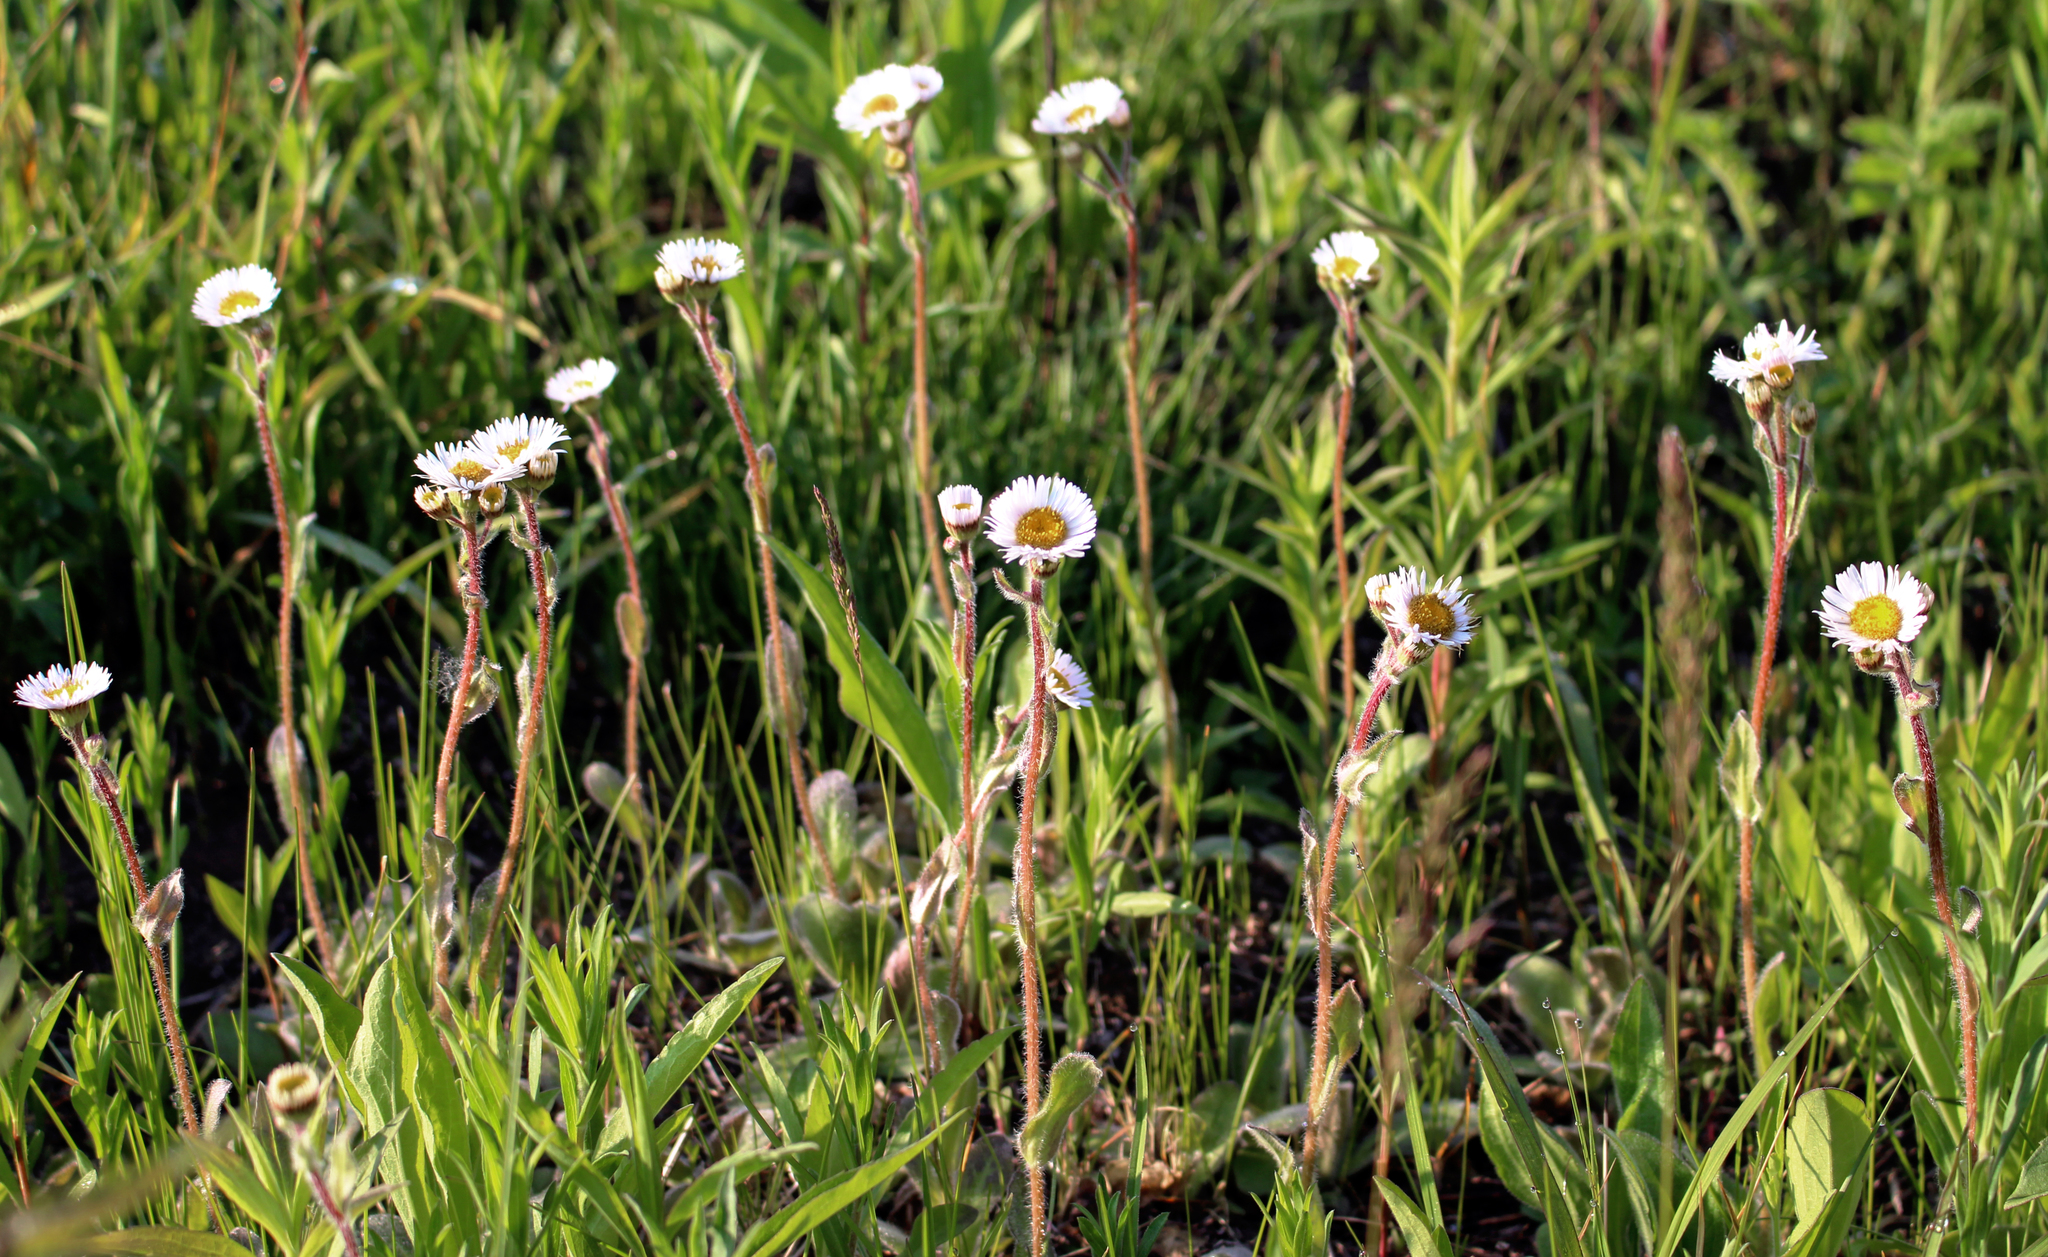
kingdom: Plantae
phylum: Tracheophyta
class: Magnoliopsida
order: Asterales
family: Asteraceae
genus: Erigeron
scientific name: Erigeron pulchellus
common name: Hairy fleabane
